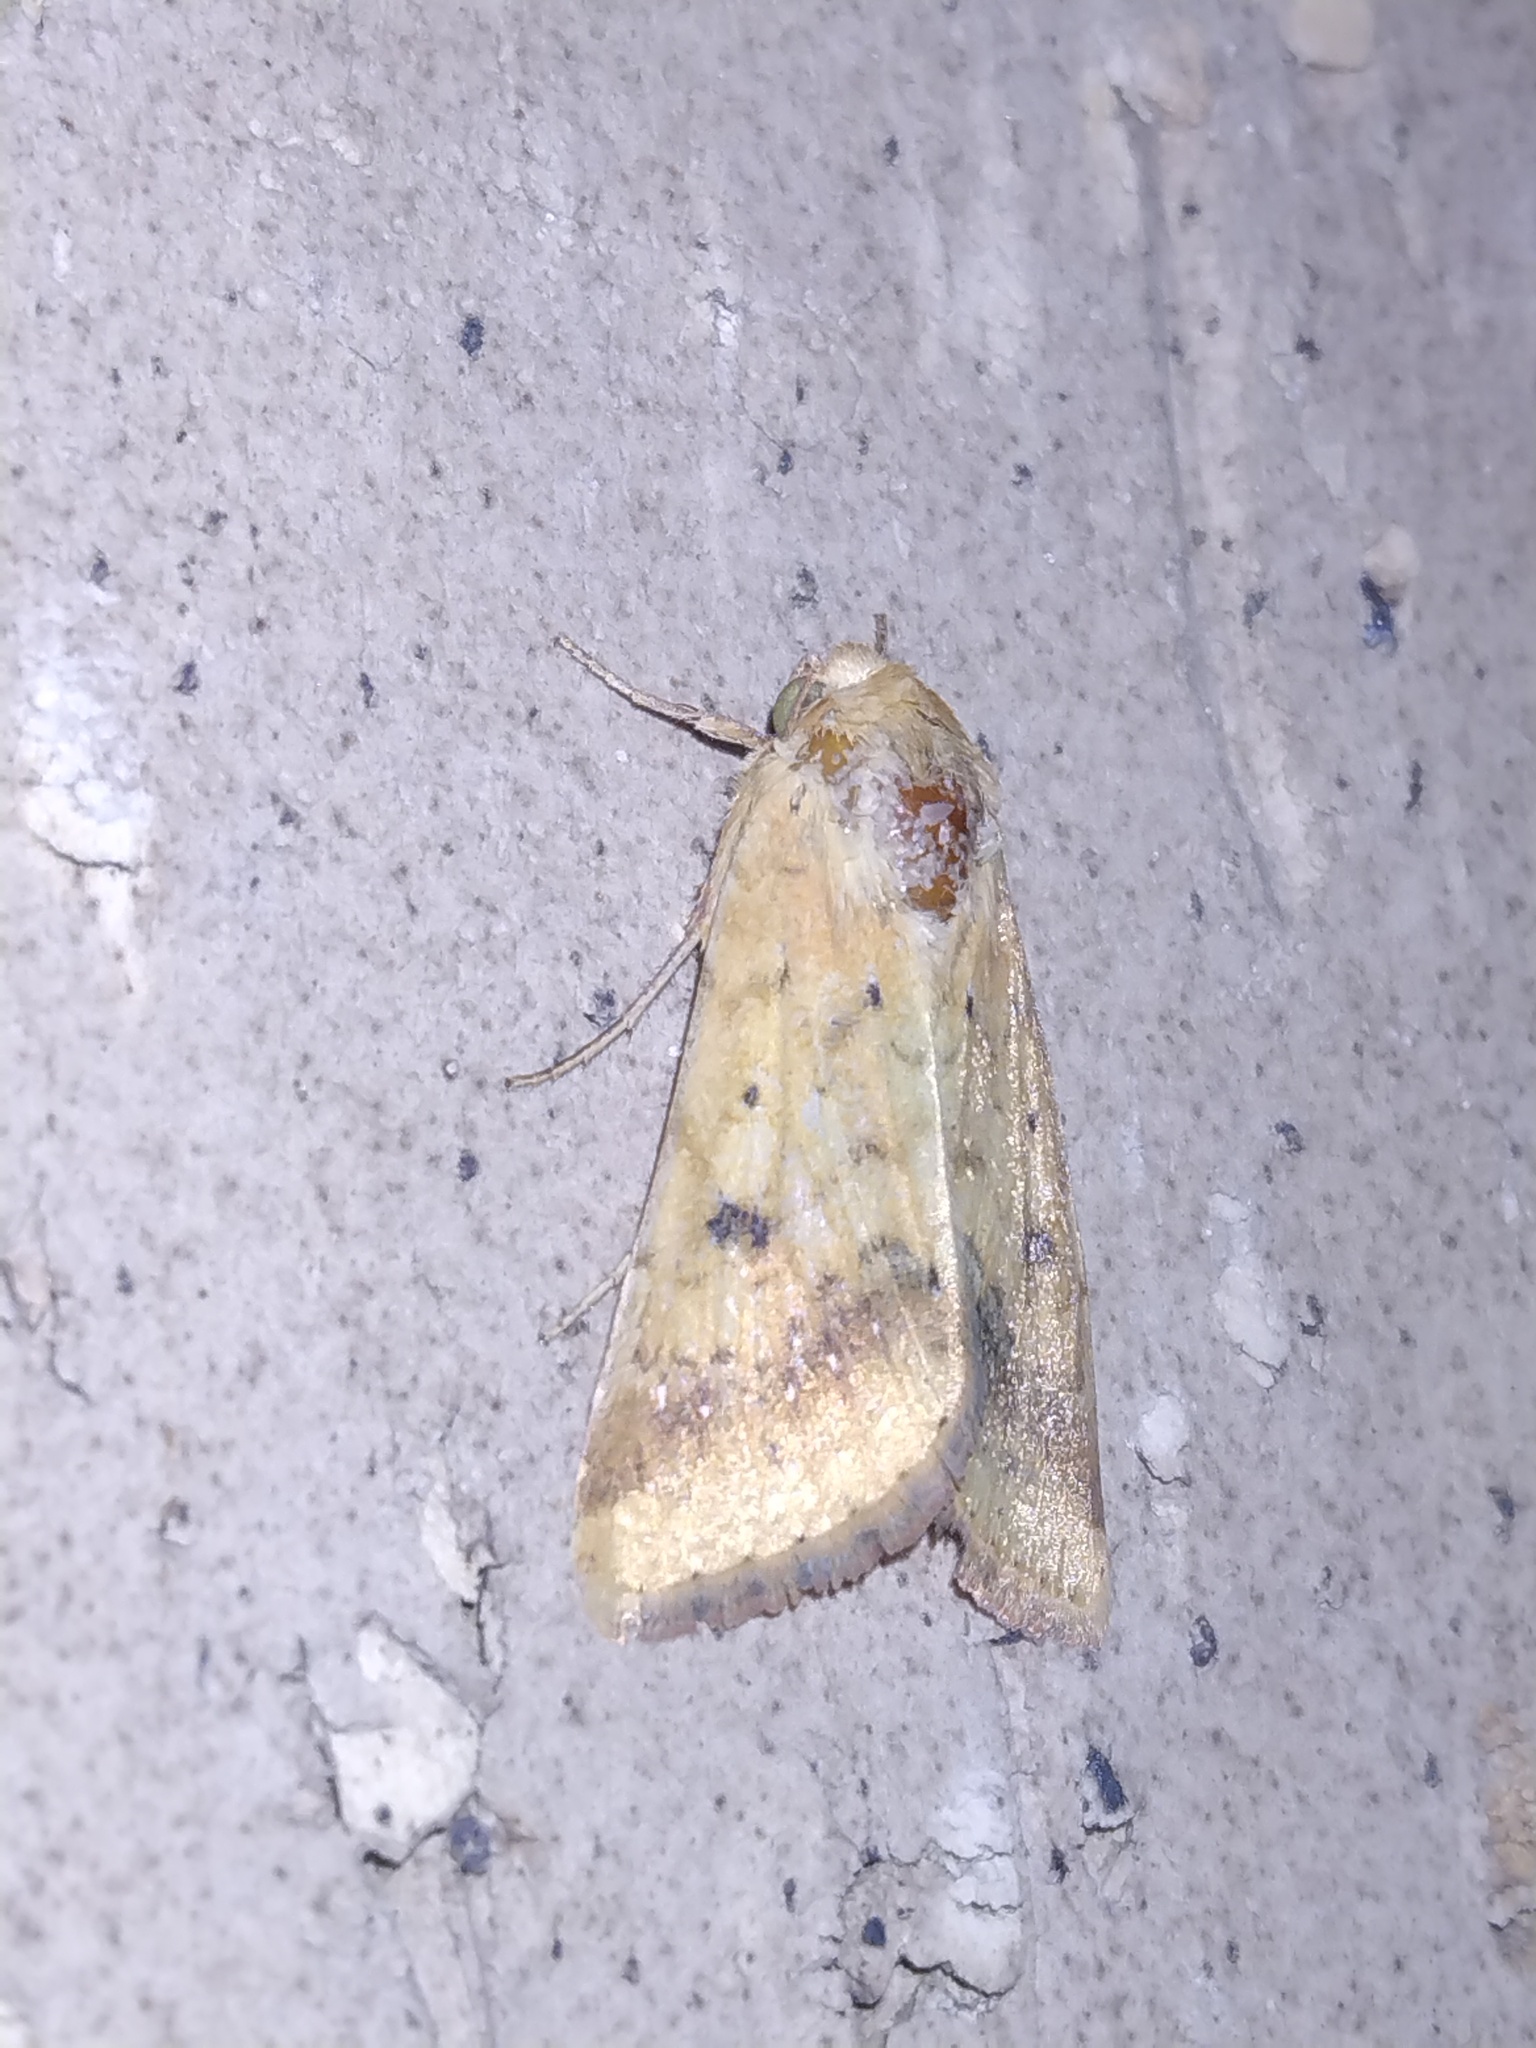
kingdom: Animalia
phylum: Arthropoda
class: Insecta
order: Lepidoptera
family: Noctuidae
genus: Helicoverpa
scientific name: Helicoverpa zea
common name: Bollworm
